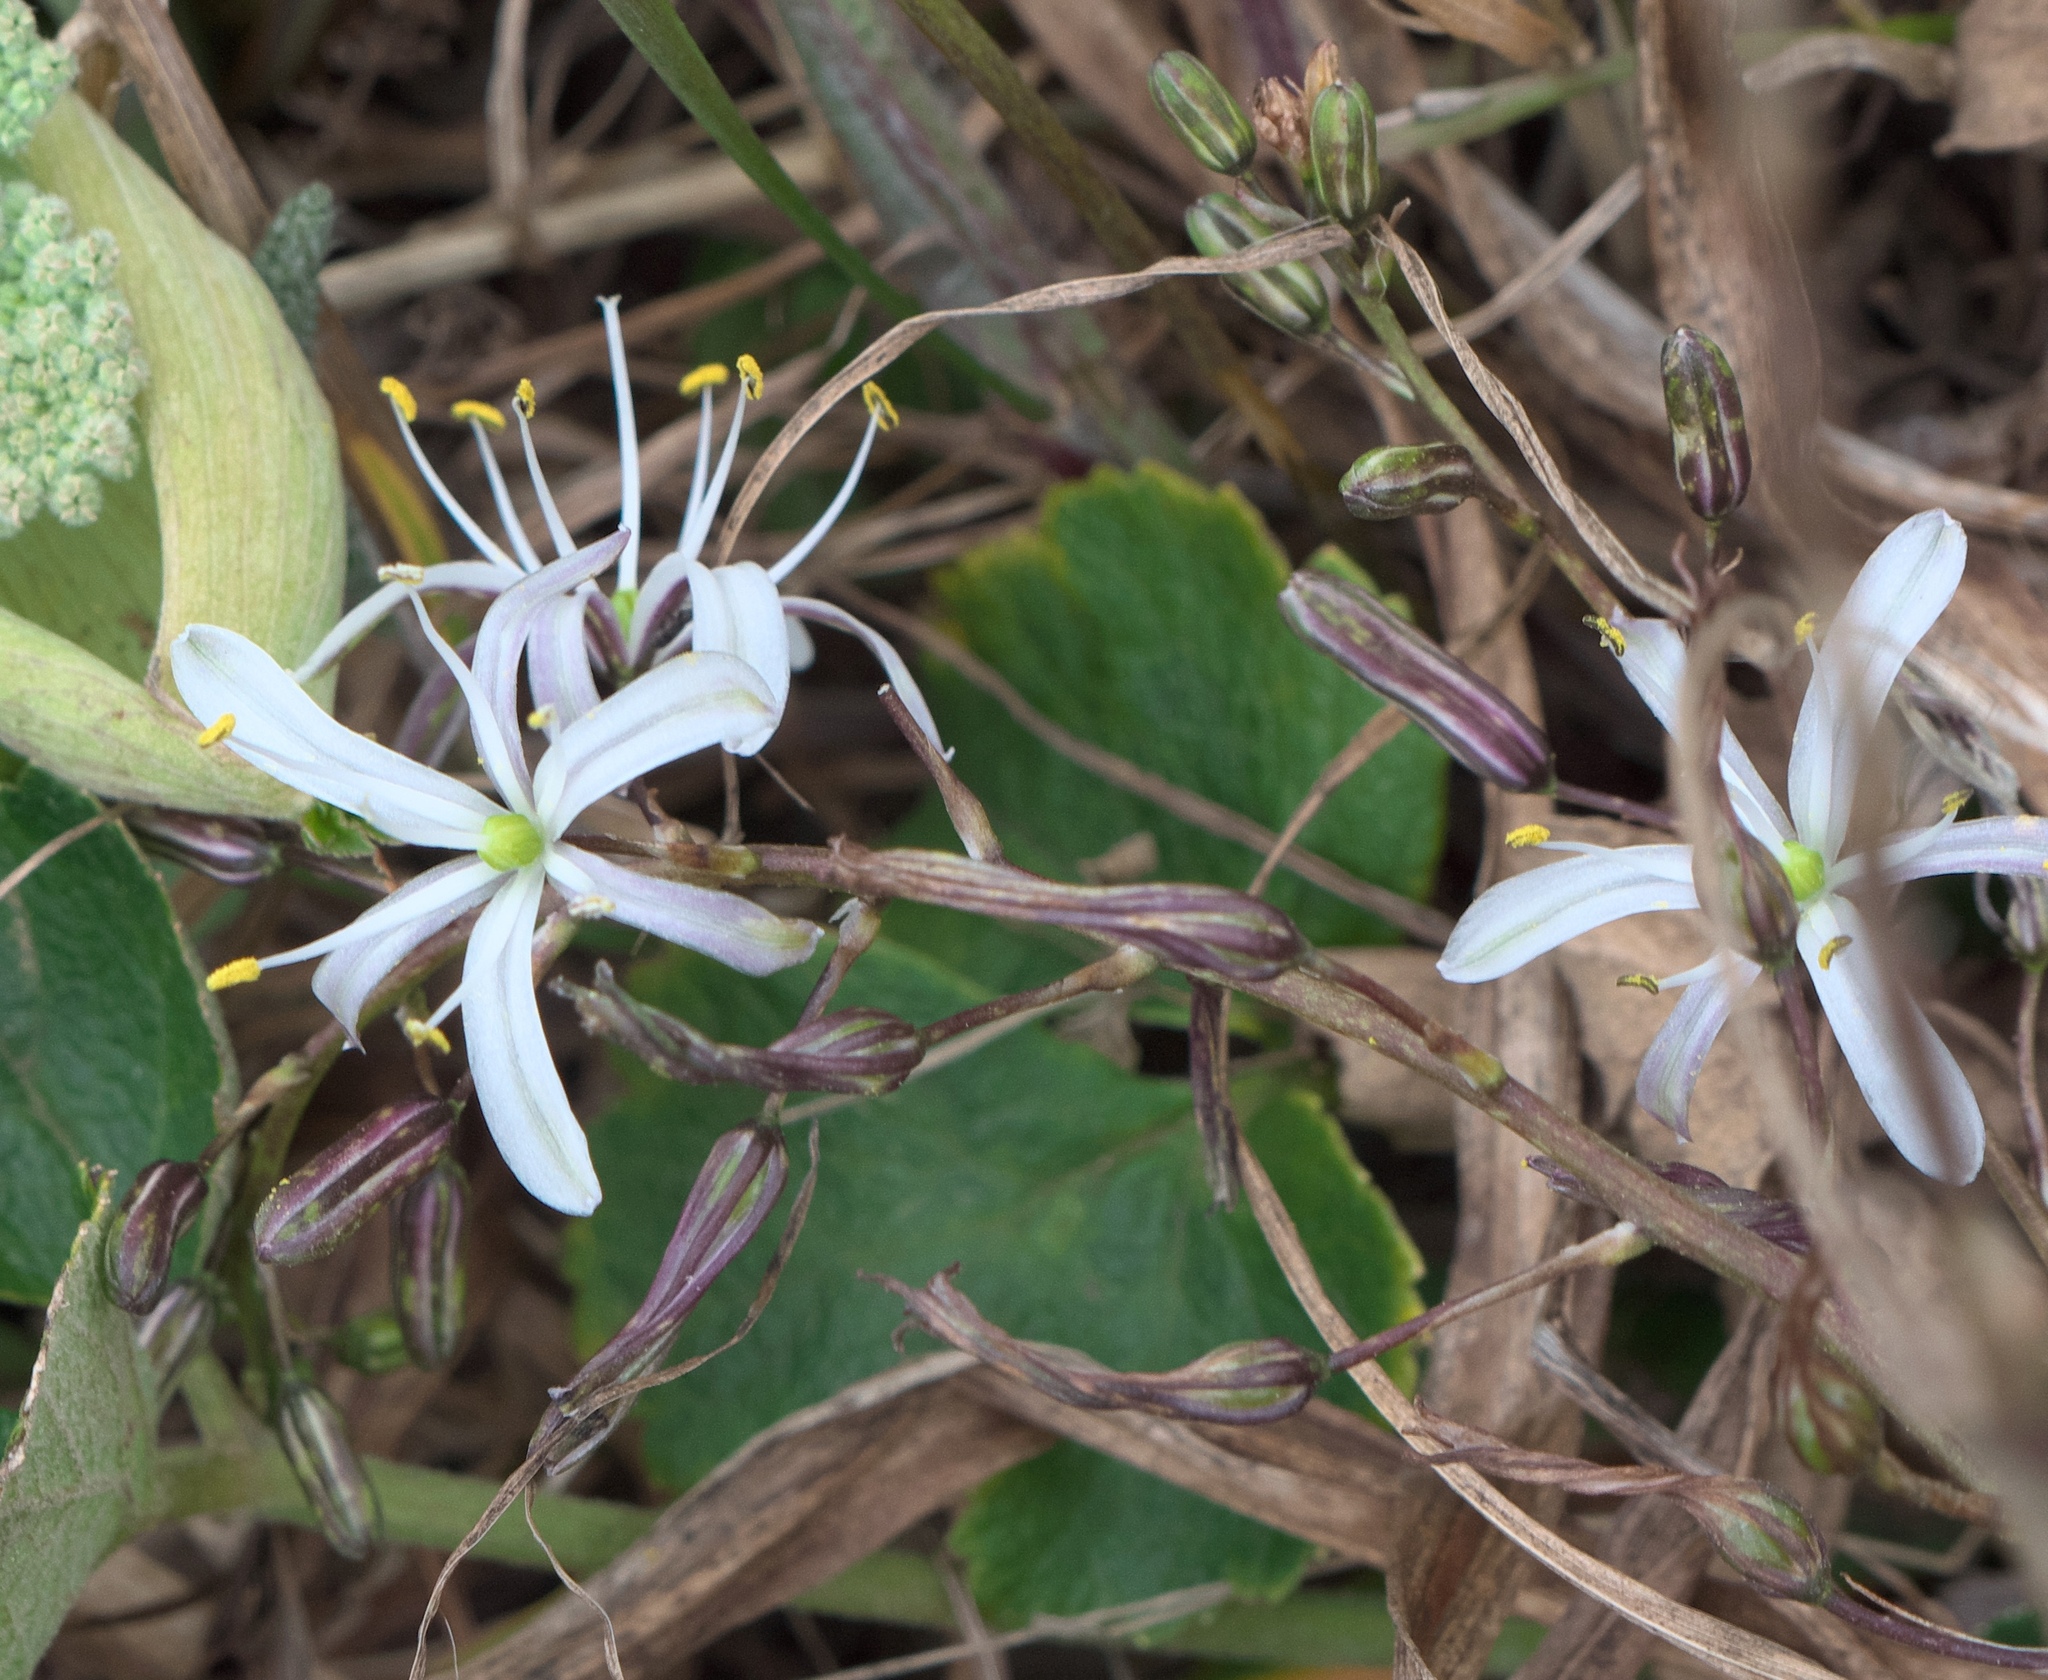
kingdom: Plantae
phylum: Tracheophyta
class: Liliopsida
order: Asparagales
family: Asparagaceae
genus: Chlorogalum
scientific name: Chlorogalum pomeridianum
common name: Amole
